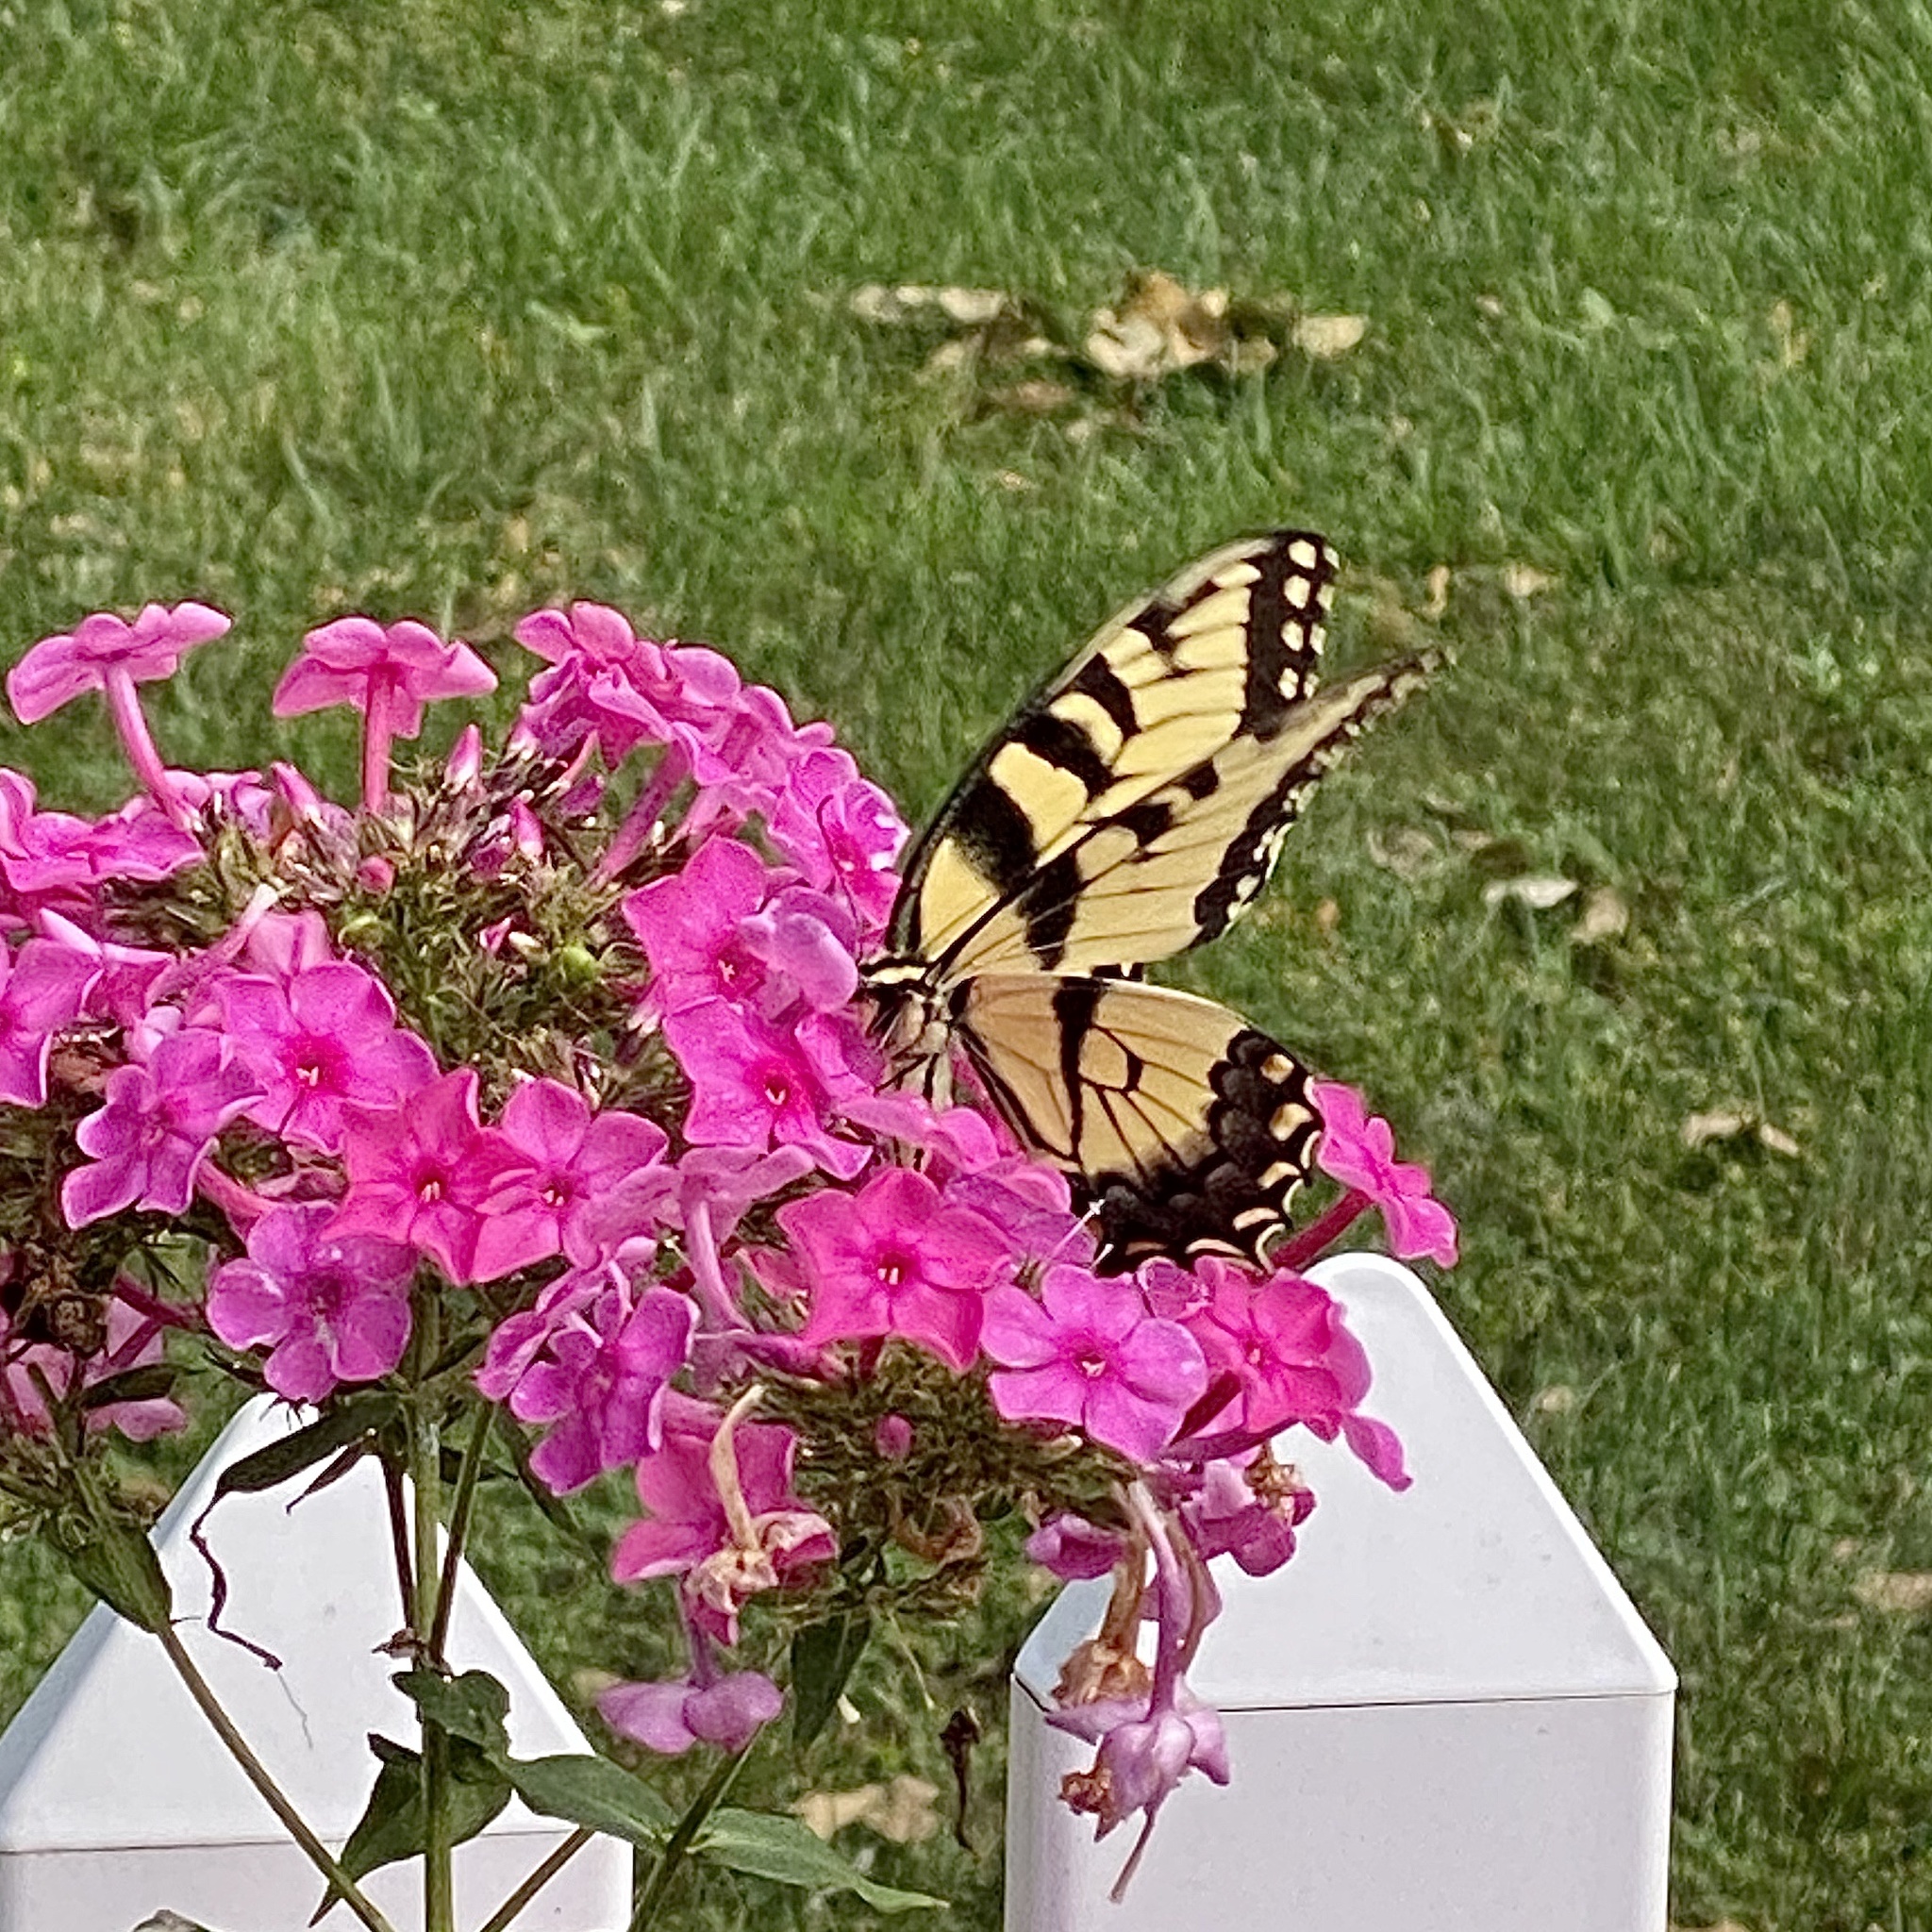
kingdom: Animalia
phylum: Arthropoda
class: Insecta
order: Lepidoptera
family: Papilionidae
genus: Papilio
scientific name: Papilio glaucus
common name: Tiger swallowtail
